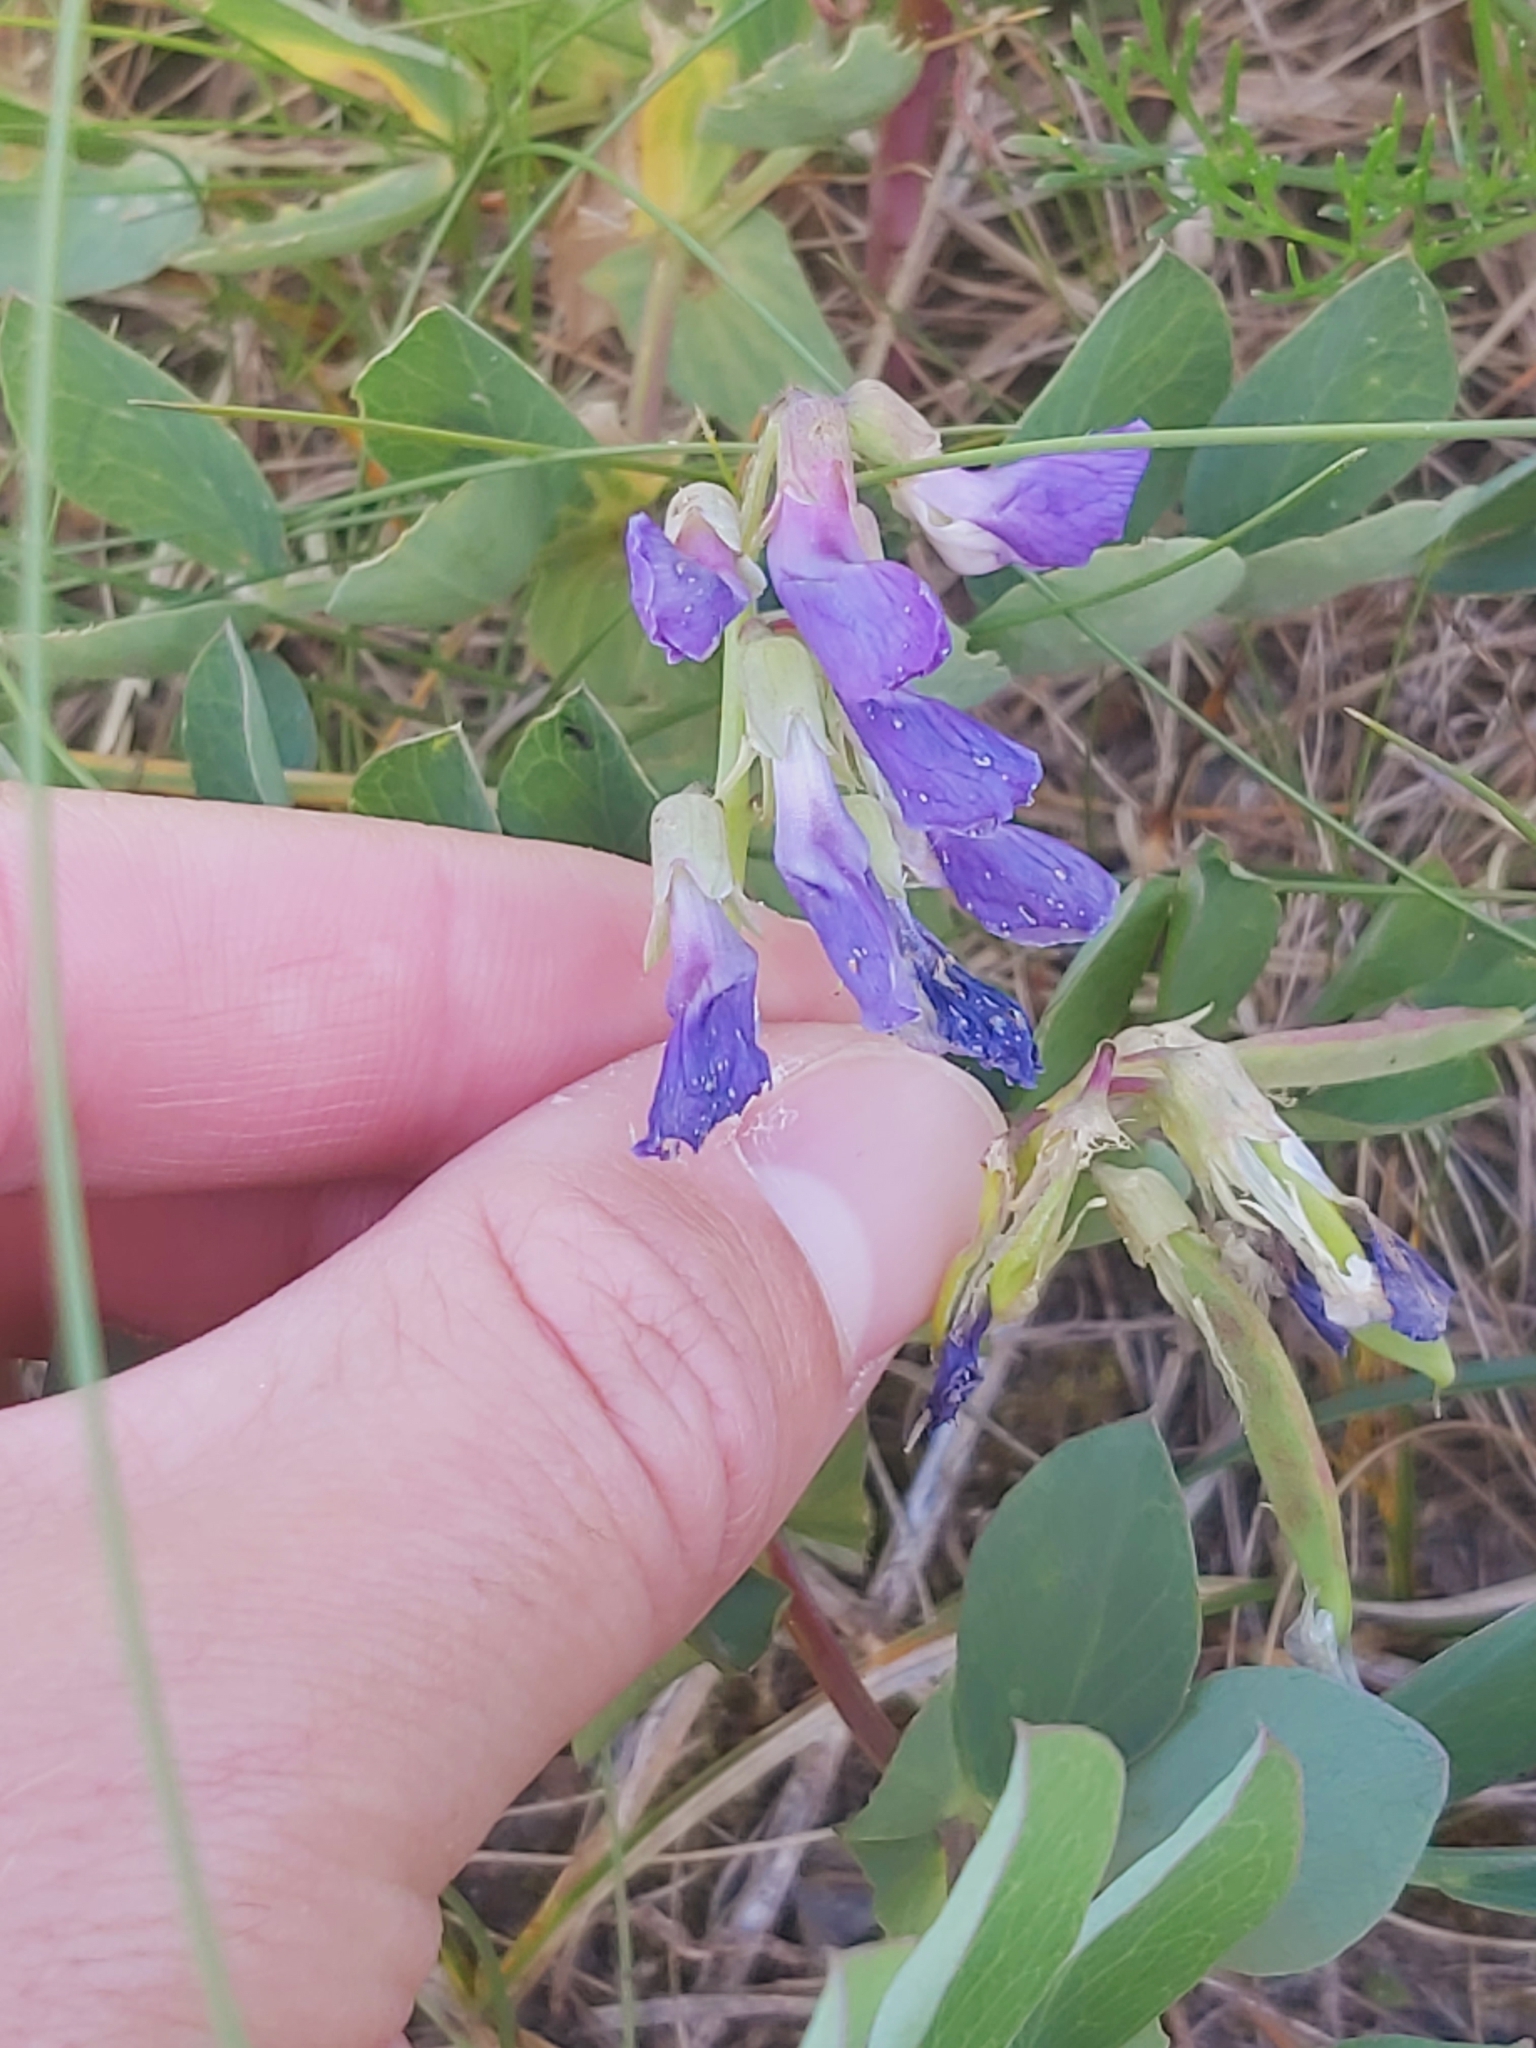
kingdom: Plantae
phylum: Tracheophyta
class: Magnoliopsida
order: Fabales
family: Fabaceae
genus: Lathyrus
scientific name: Lathyrus japonicus
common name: Sea pea
